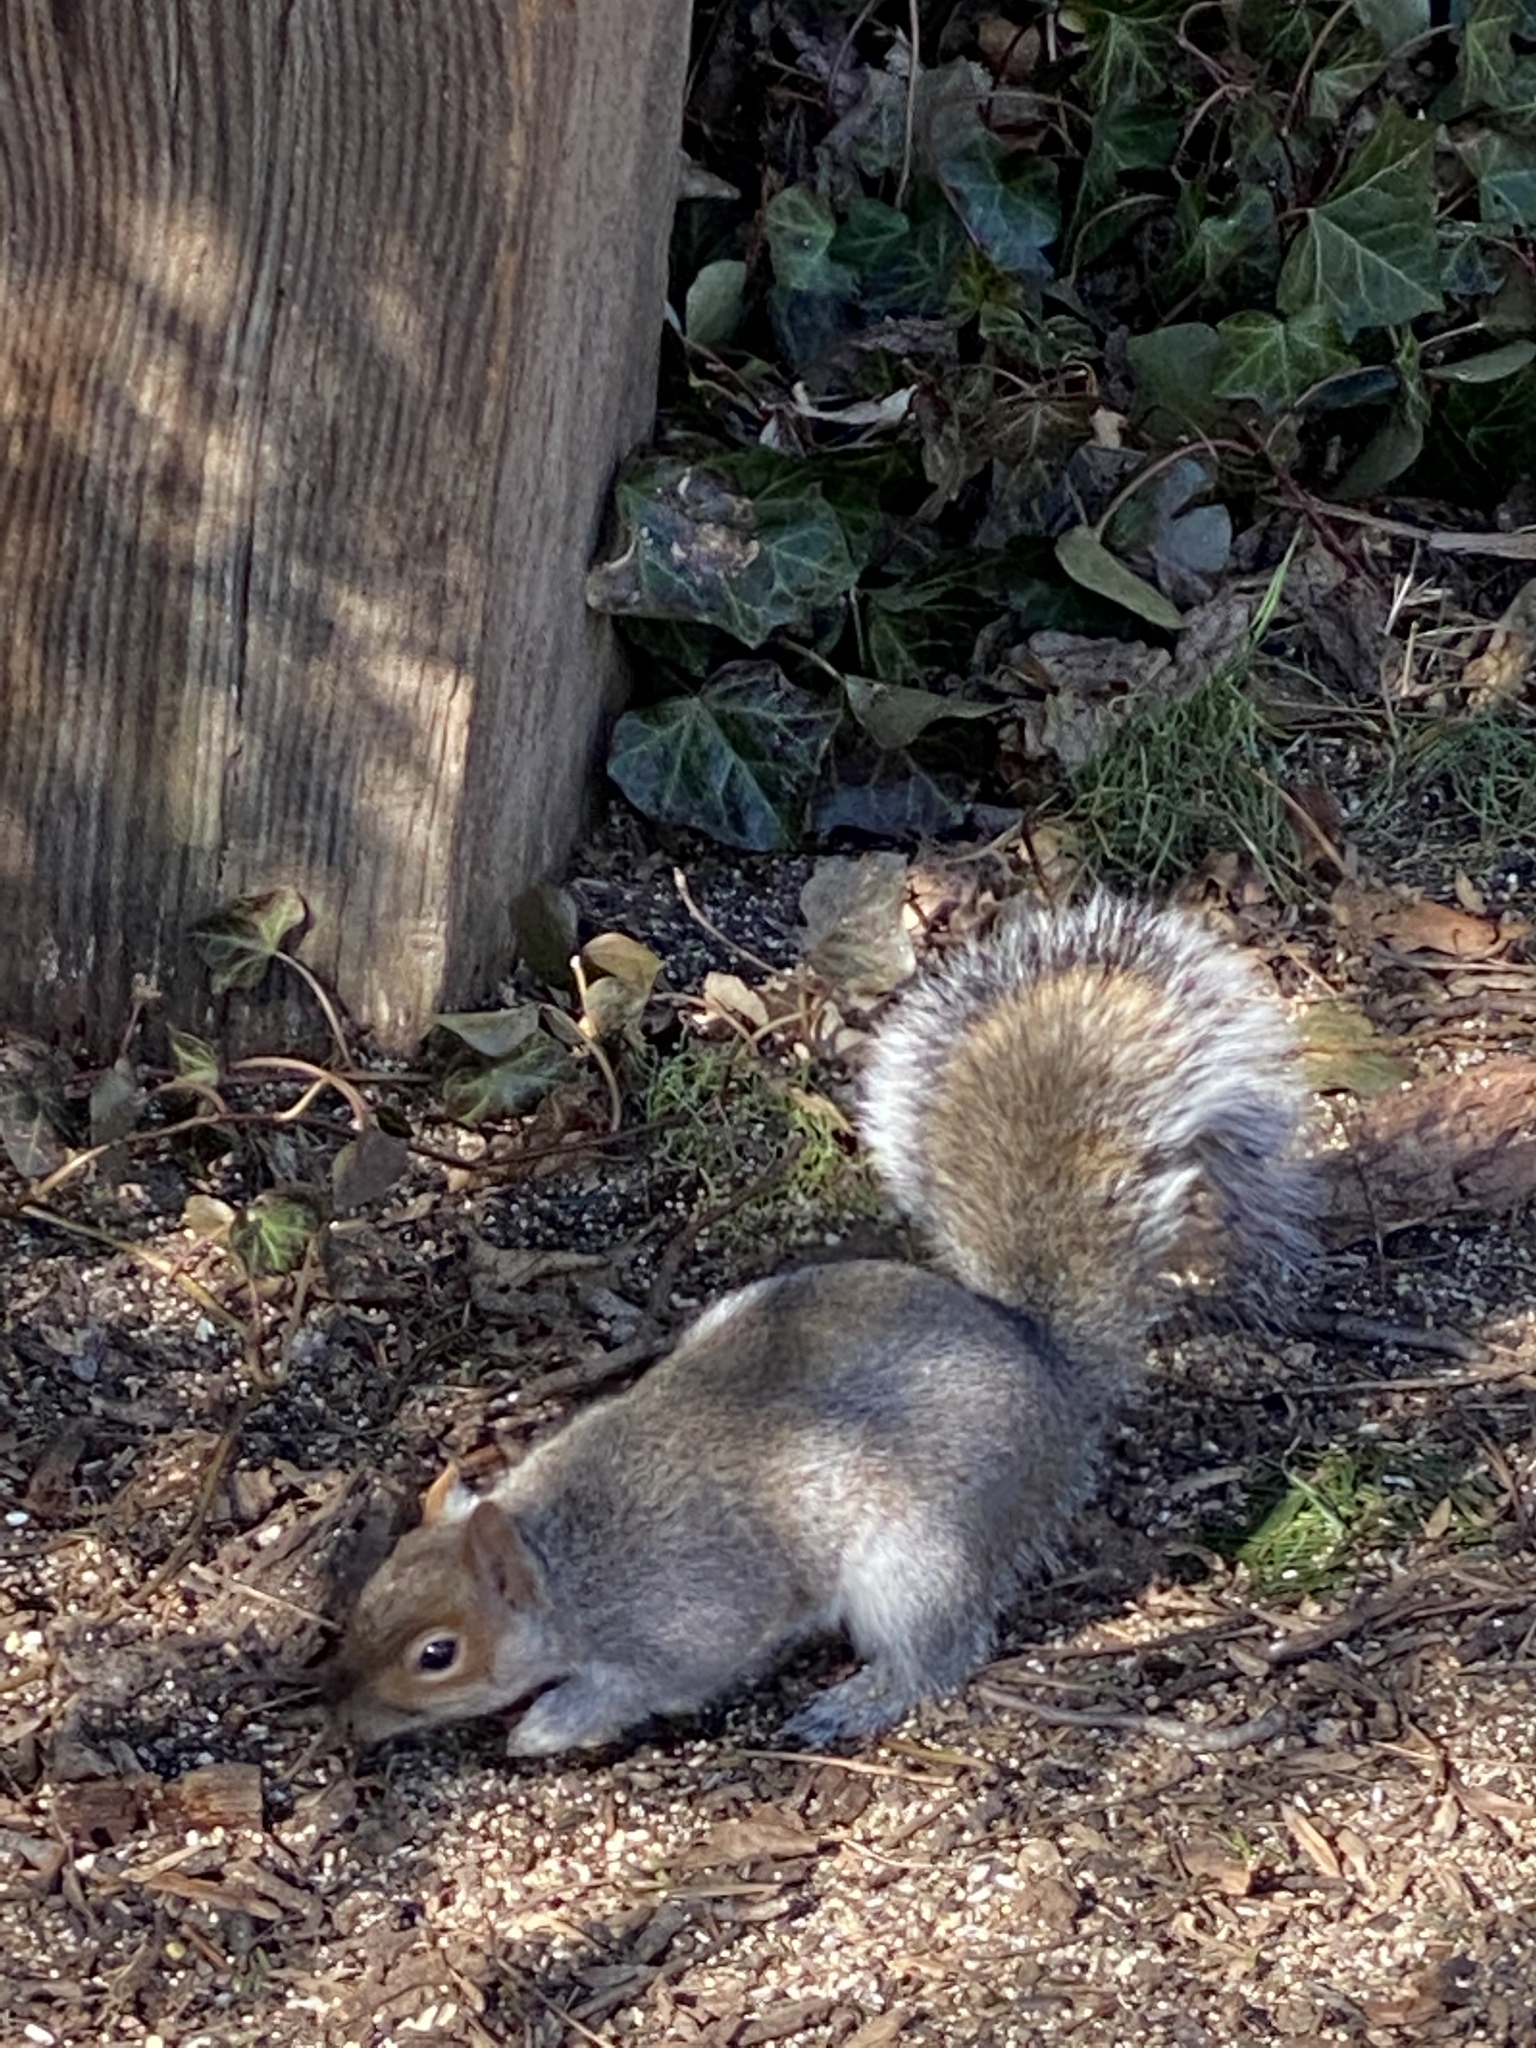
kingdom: Animalia
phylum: Chordata
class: Mammalia
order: Rodentia
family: Sciuridae
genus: Sciurus
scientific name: Sciurus carolinensis
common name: Eastern gray squirrel
